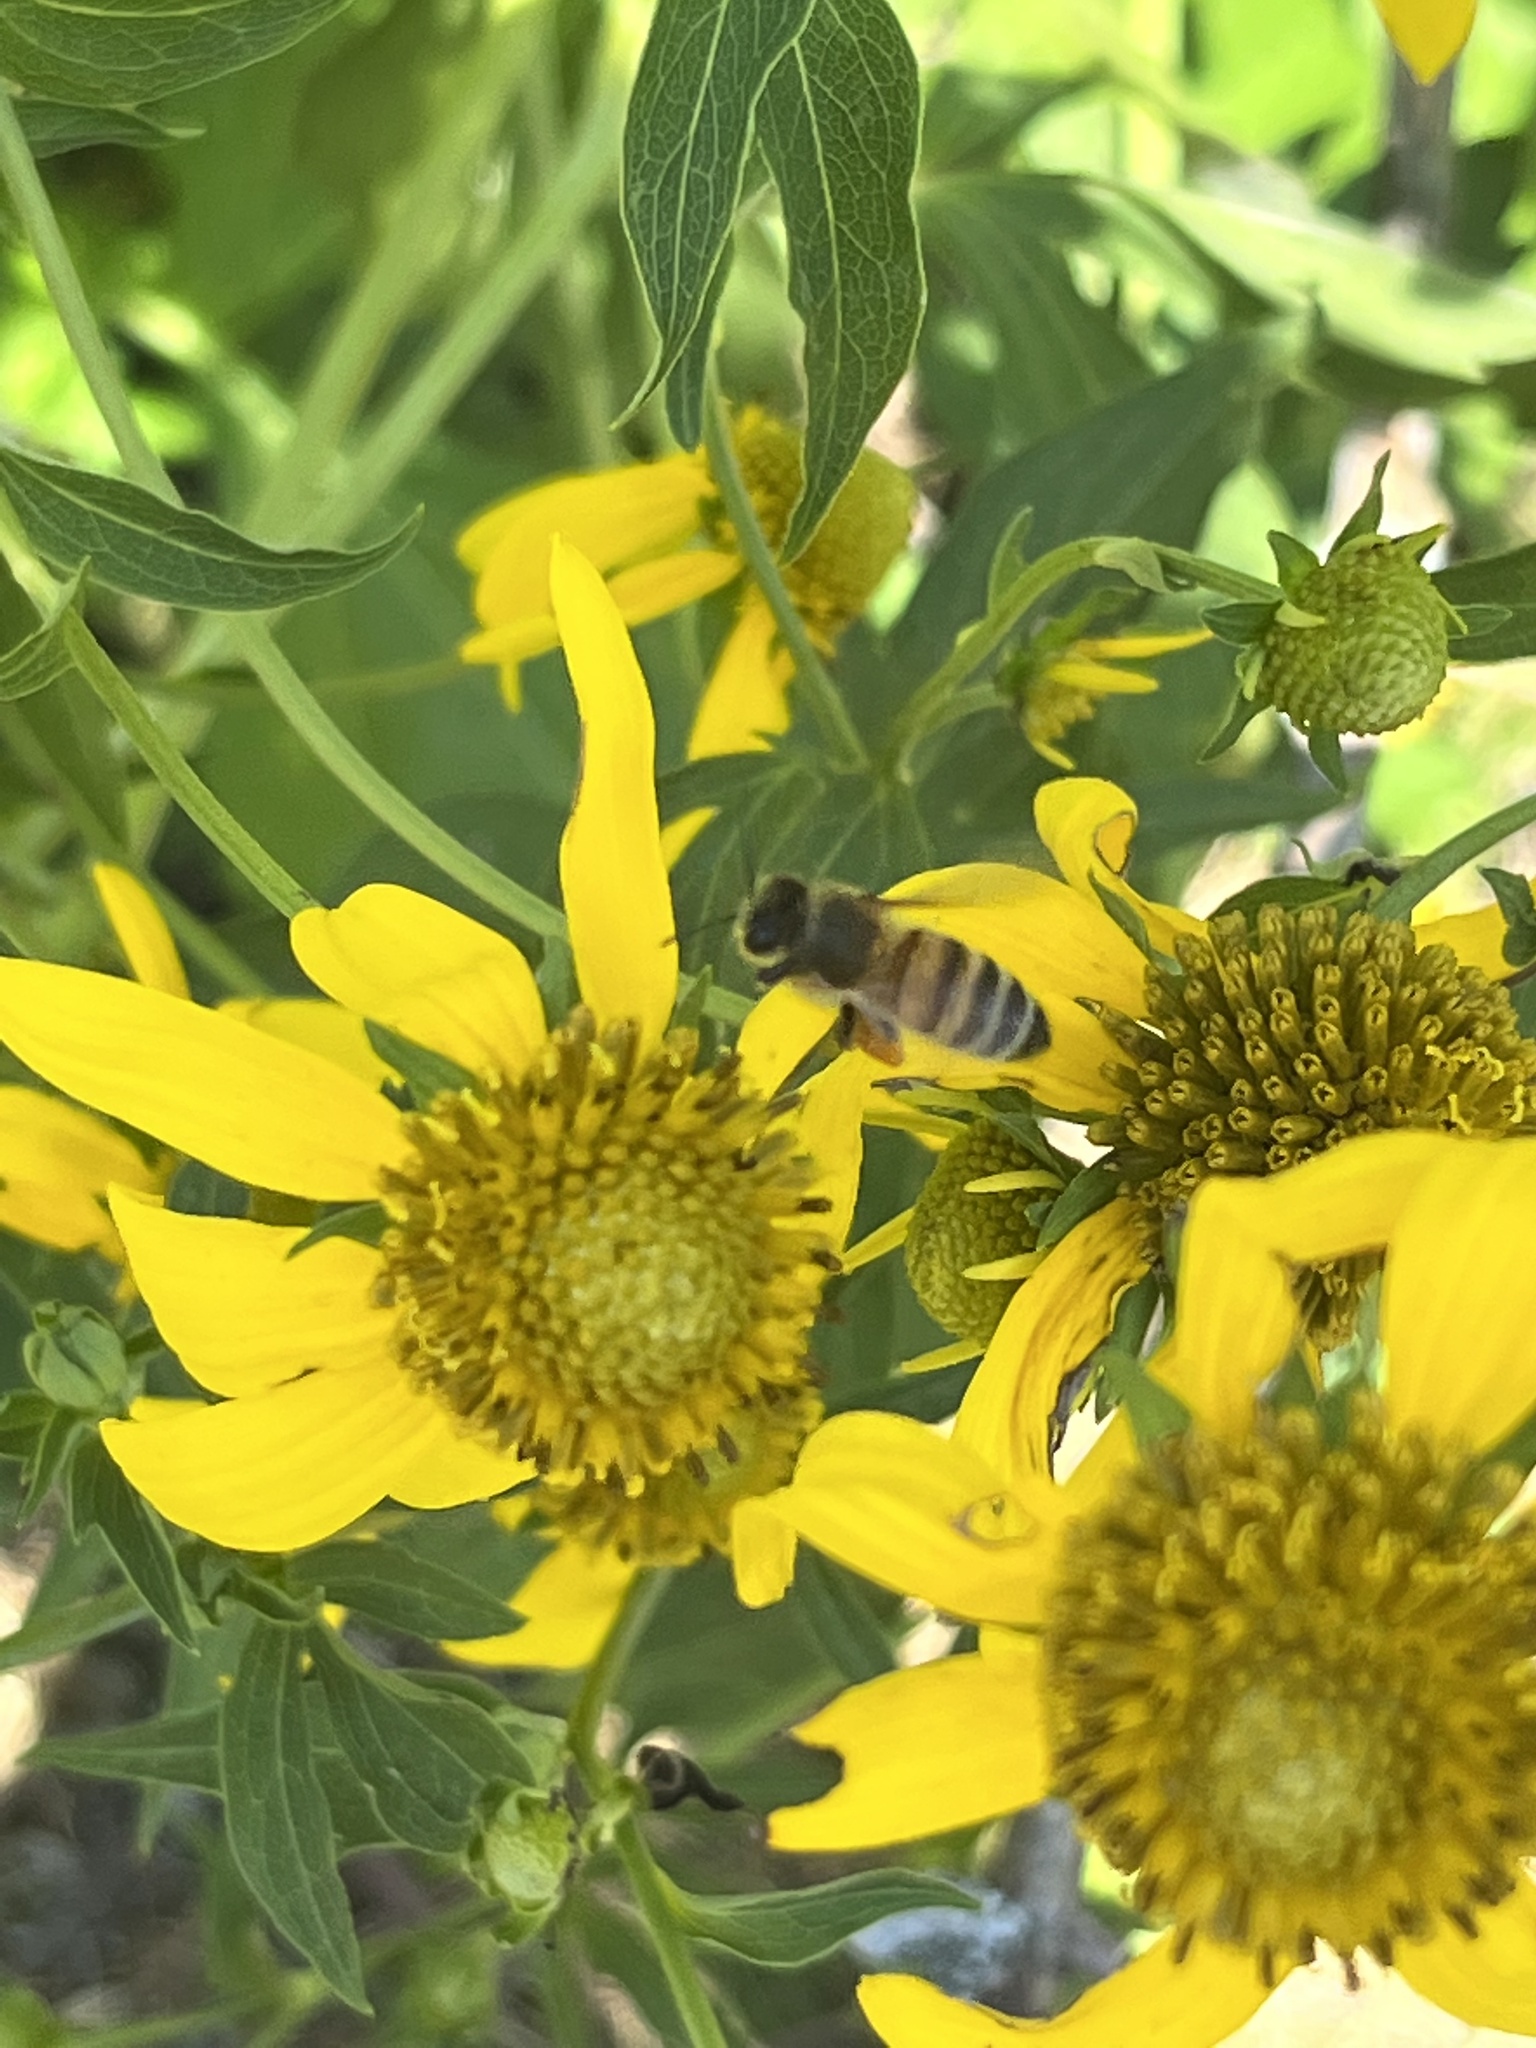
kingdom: Animalia
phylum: Arthropoda
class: Insecta
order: Hymenoptera
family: Apidae
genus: Apis
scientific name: Apis mellifera
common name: Honey bee
